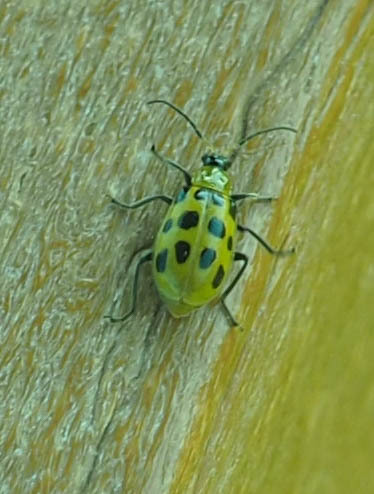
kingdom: Animalia
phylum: Arthropoda
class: Insecta
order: Coleoptera
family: Chrysomelidae
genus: Diabrotica
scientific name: Diabrotica undecimpunctata
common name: Spotted cucumber beetle
